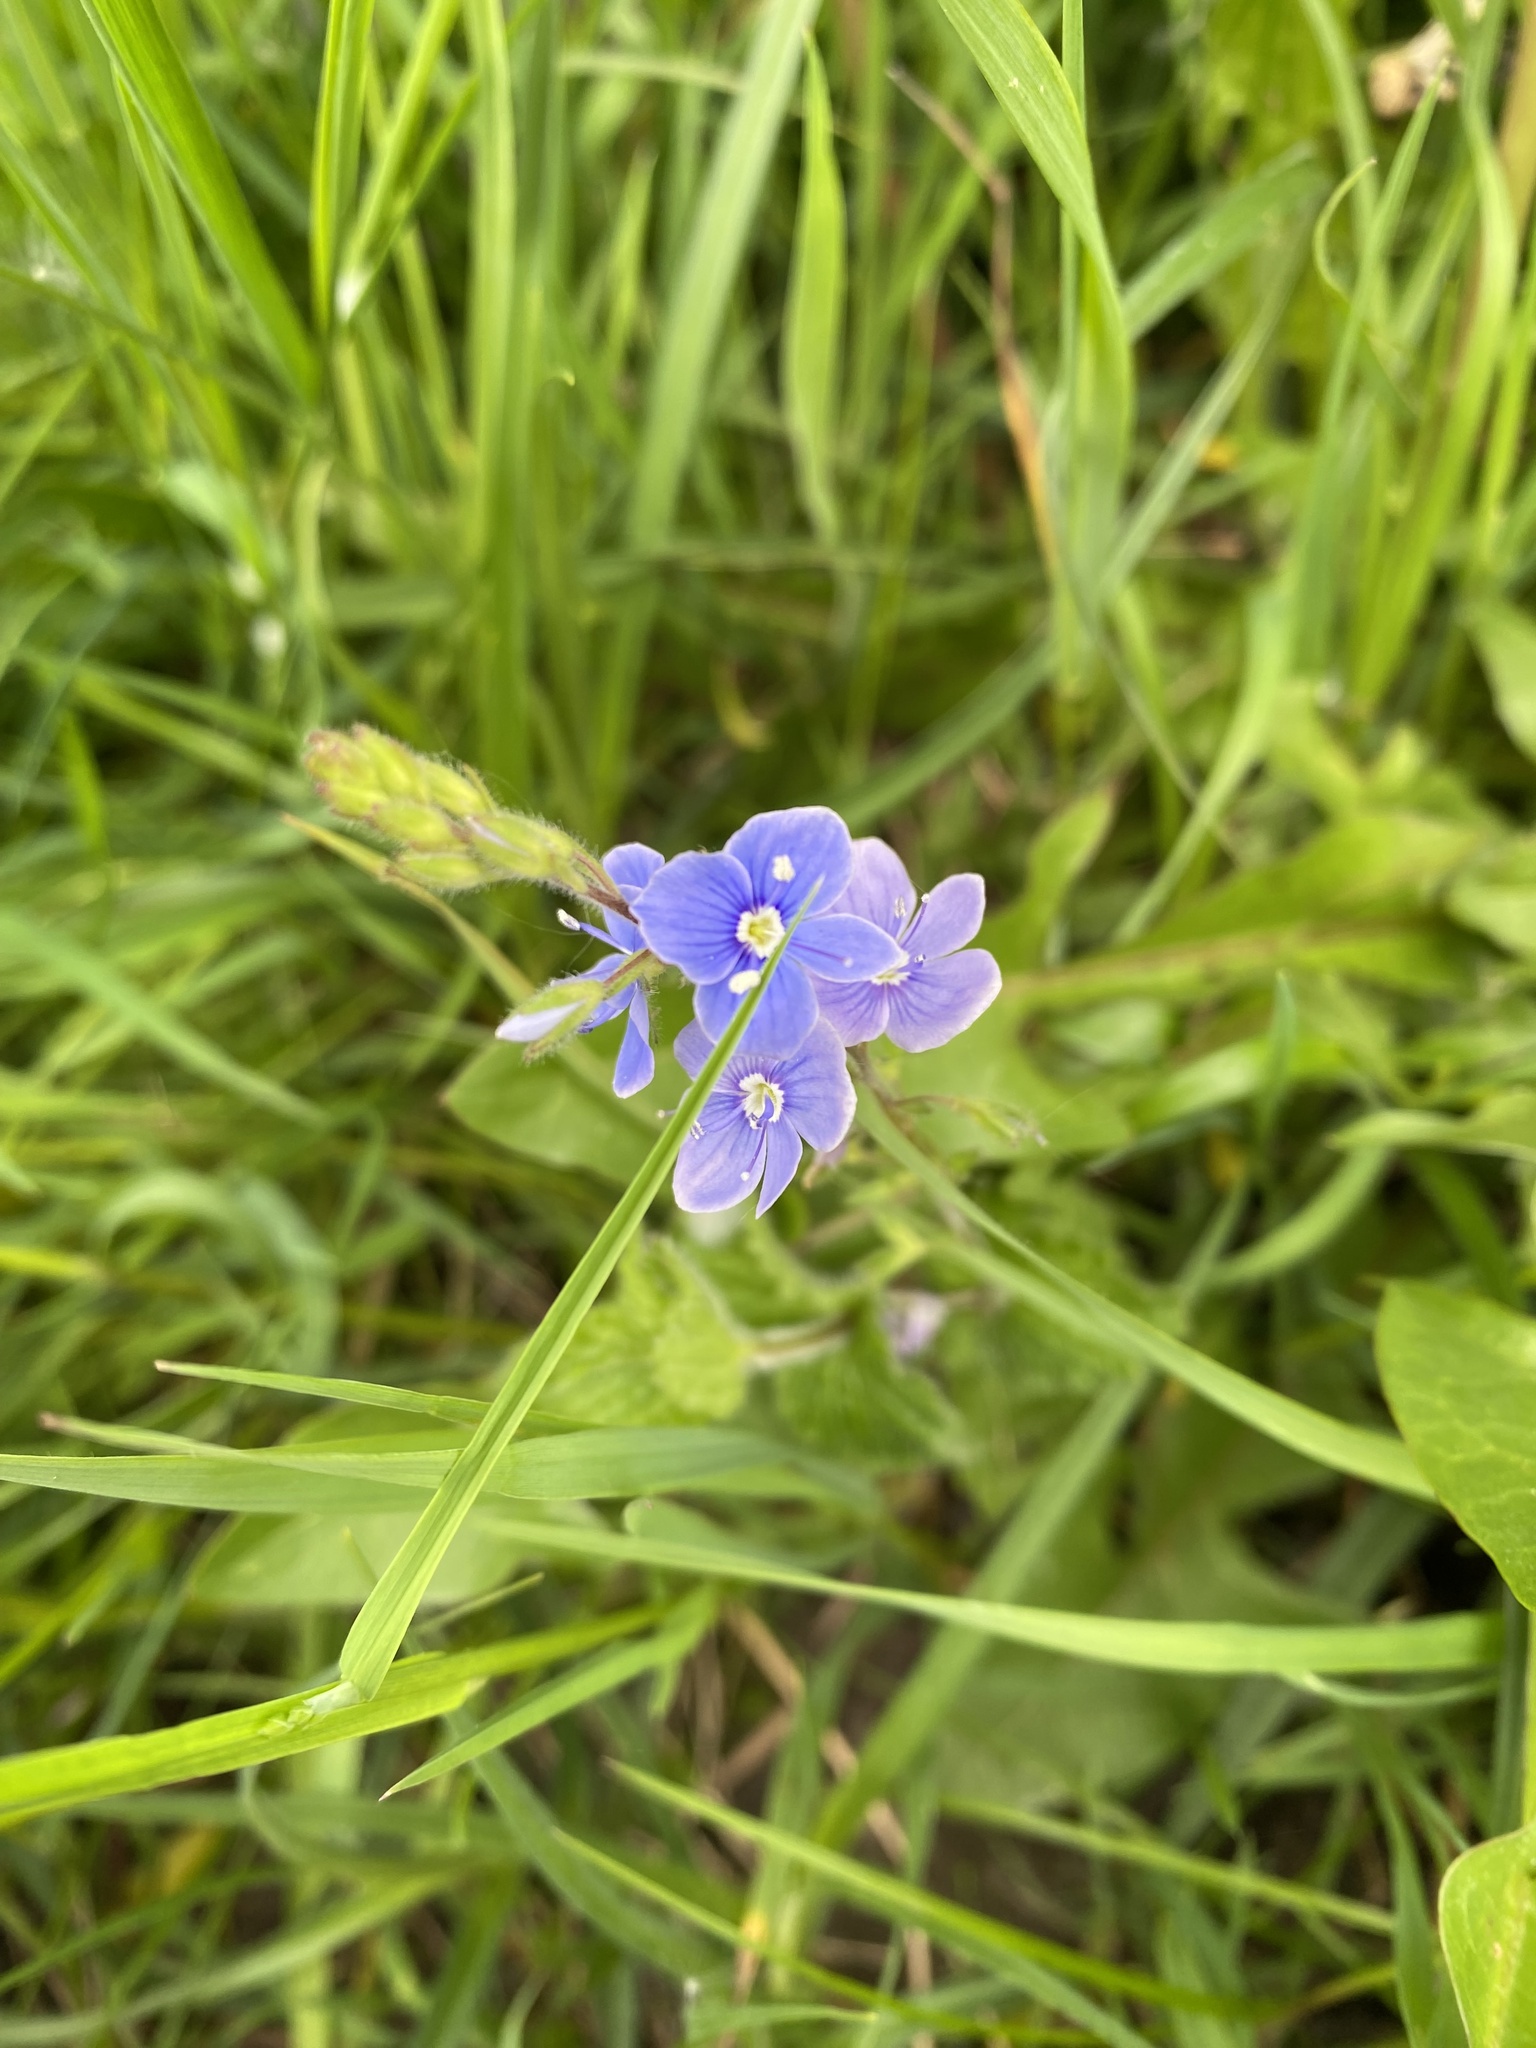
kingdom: Plantae
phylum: Tracheophyta
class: Magnoliopsida
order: Lamiales
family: Plantaginaceae
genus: Veronica
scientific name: Veronica chamaedrys
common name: Germander speedwell
